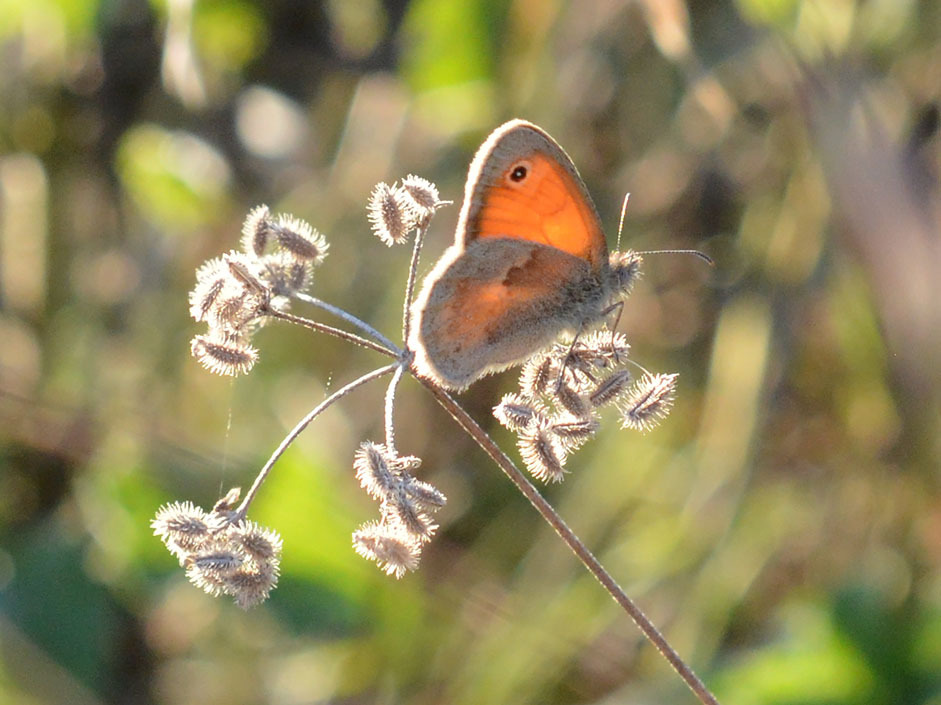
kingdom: Animalia
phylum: Arthropoda
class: Insecta
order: Lepidoptera
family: Nymphalidae
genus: Coenonympha
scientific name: Coenonympha pamphilus
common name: Small heath
